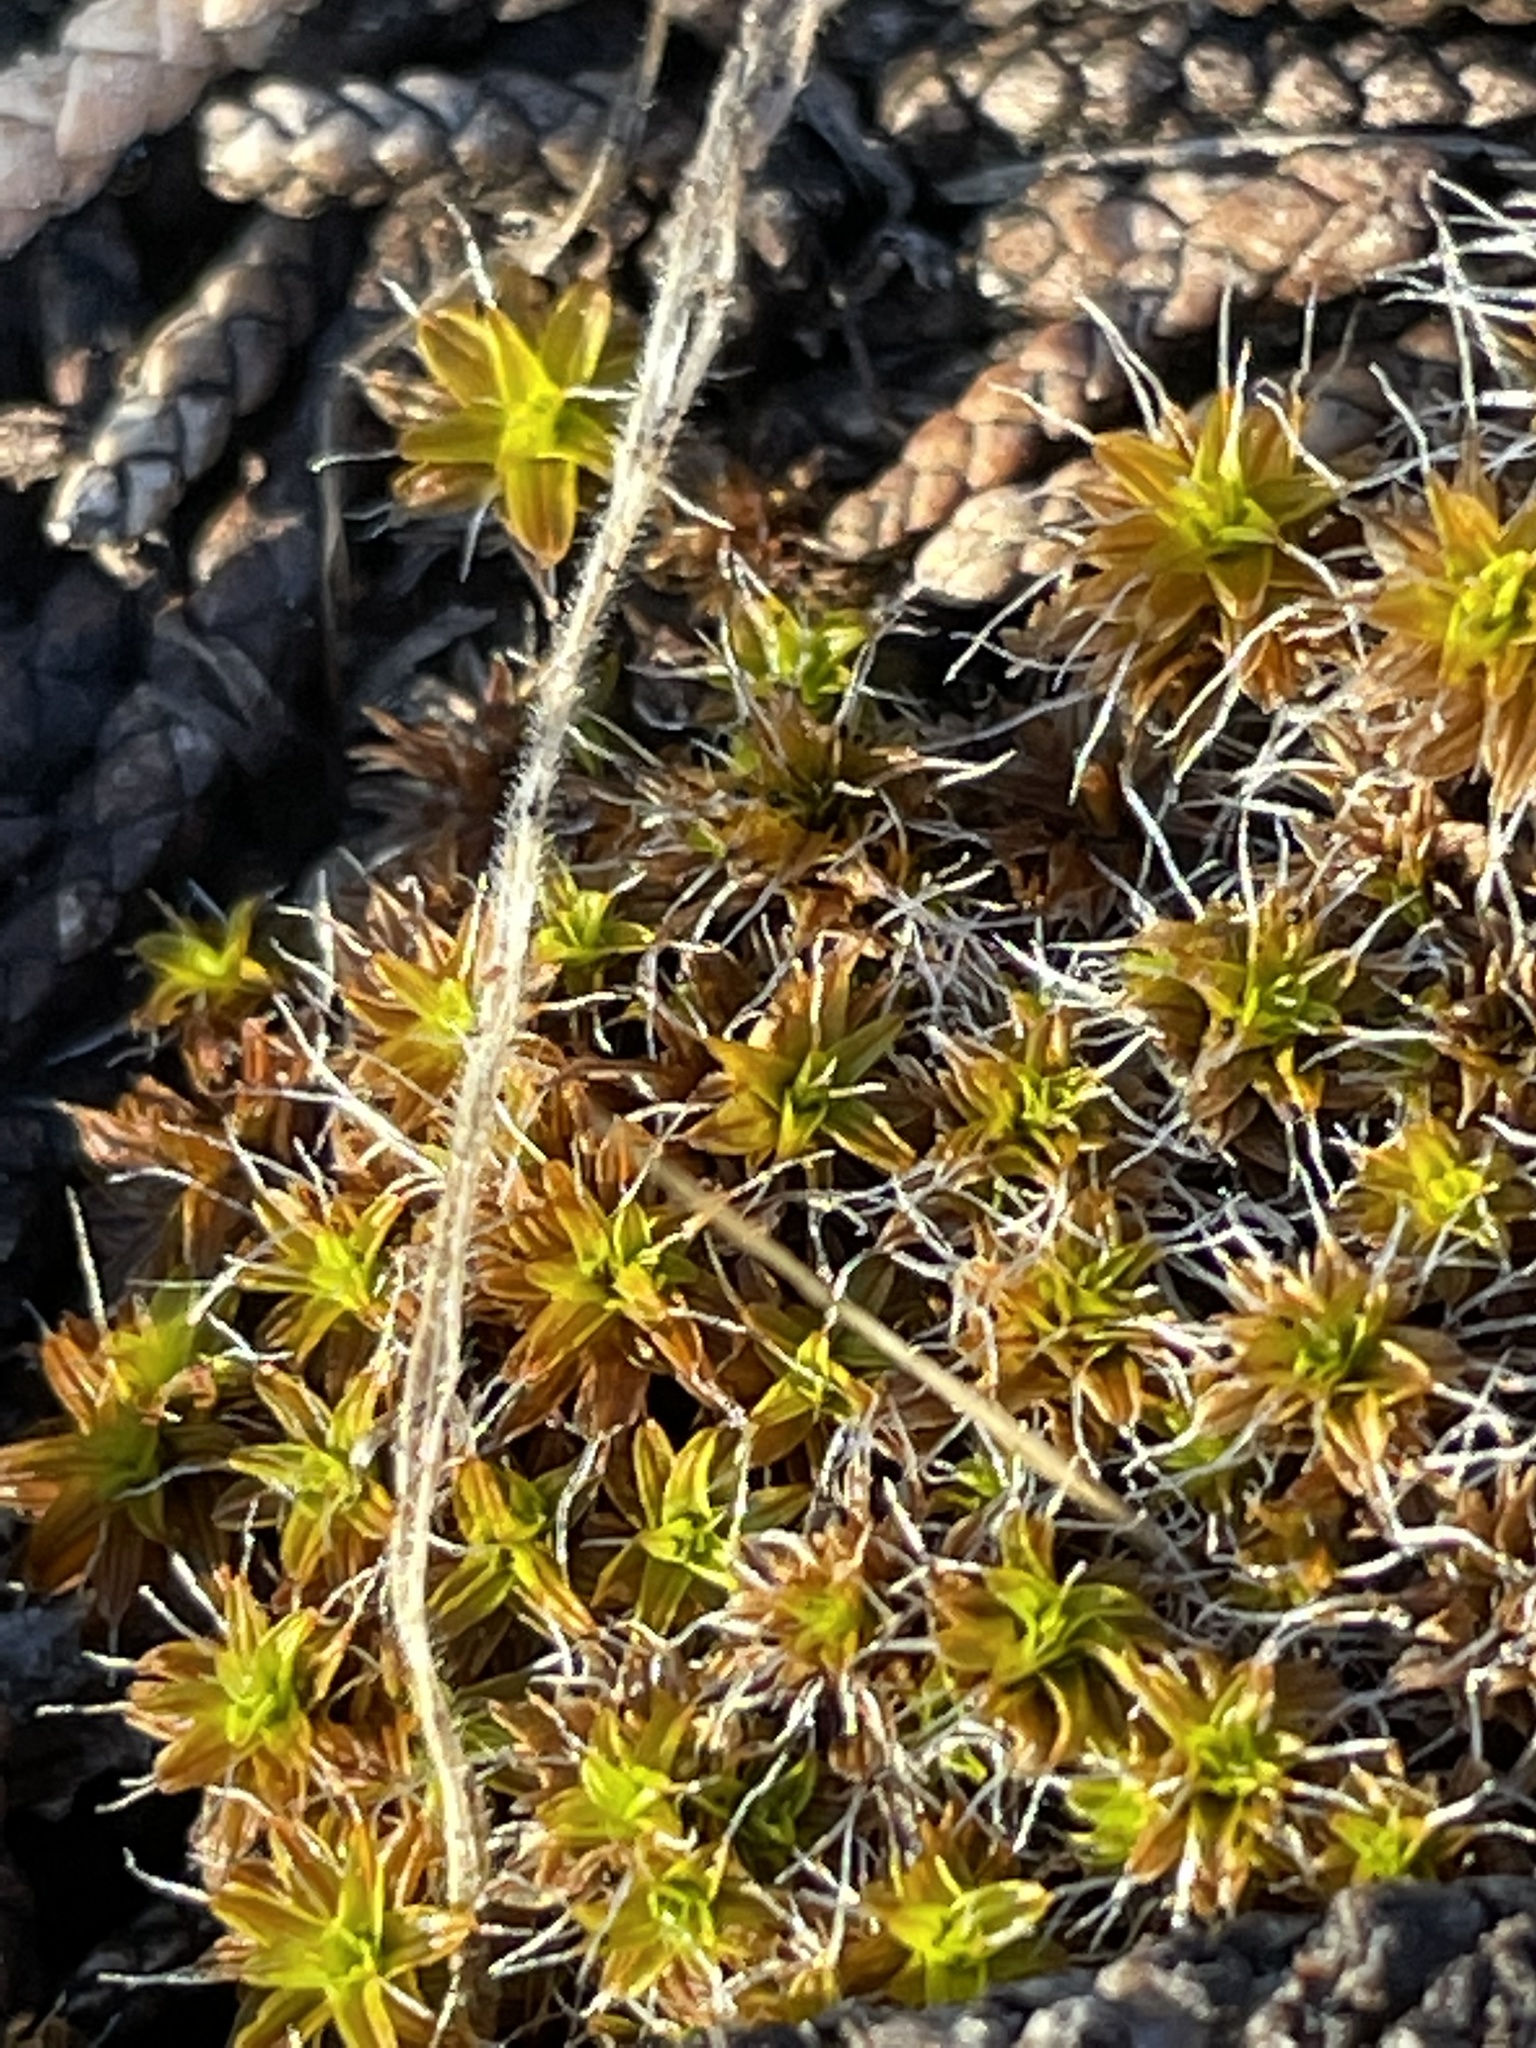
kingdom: Plantae
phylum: Bryophyta
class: Bryopsida
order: Pottiales
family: Pottiaceae
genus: Syntrichia
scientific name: Syntrichia ruralis
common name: Sidewalk screw moss
